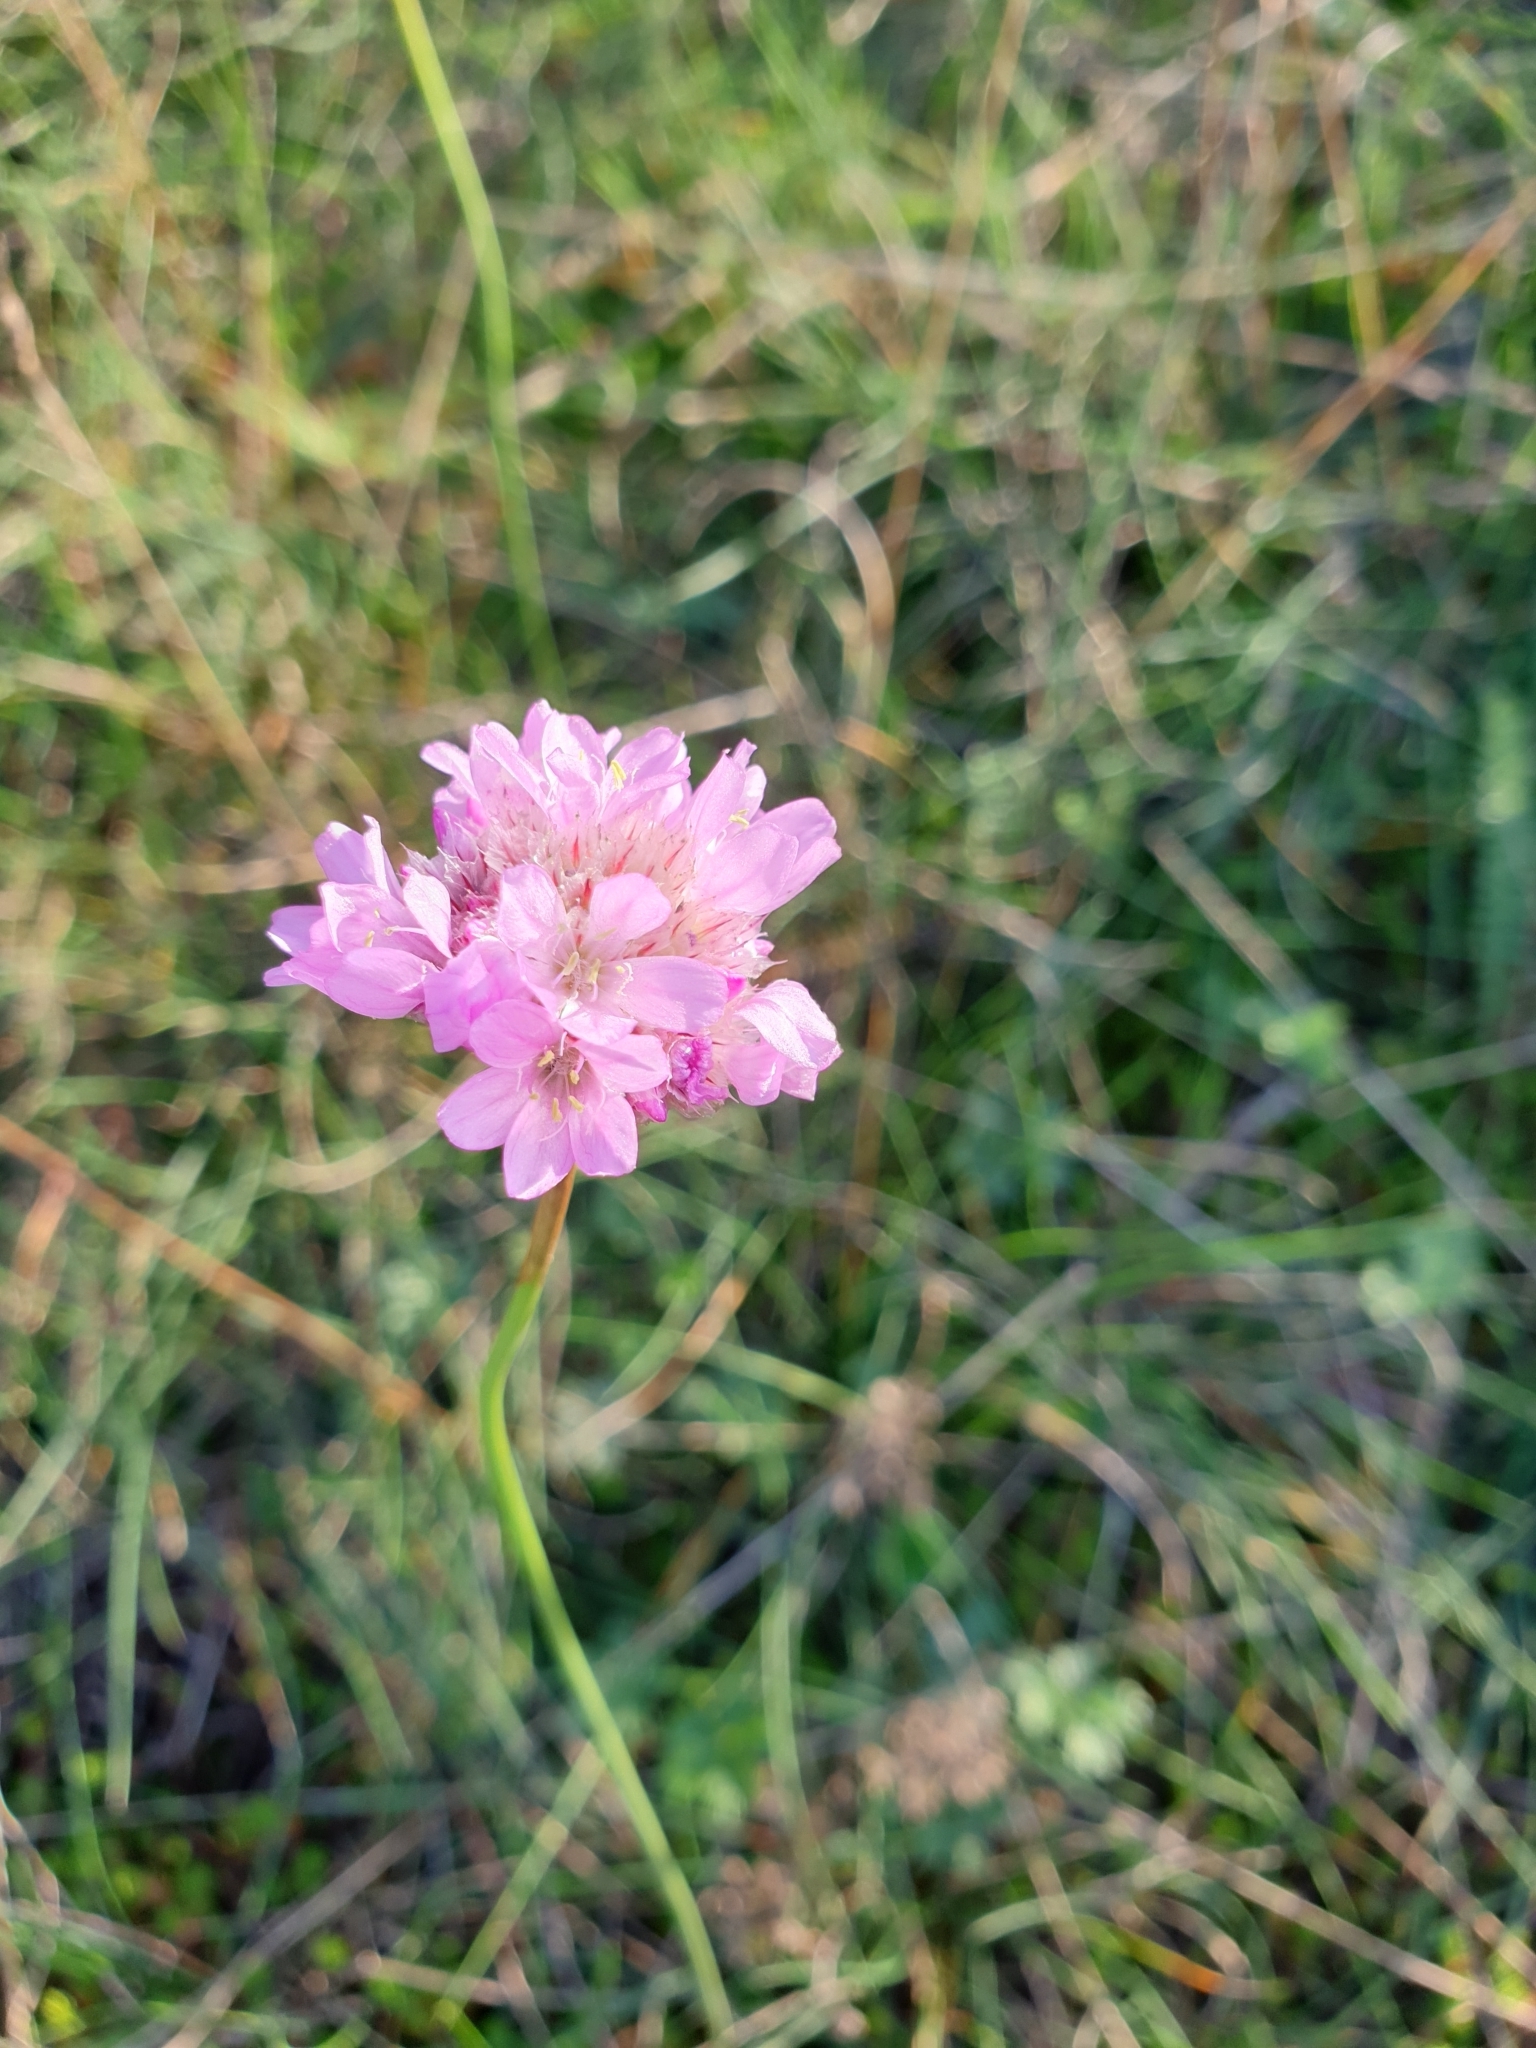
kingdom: Plantae
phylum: Tracheophyta
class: Magnoliopsida
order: Caryophyllales
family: Plumbaginaceae
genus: Armeria
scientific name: Armeria maritima
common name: Thrift
